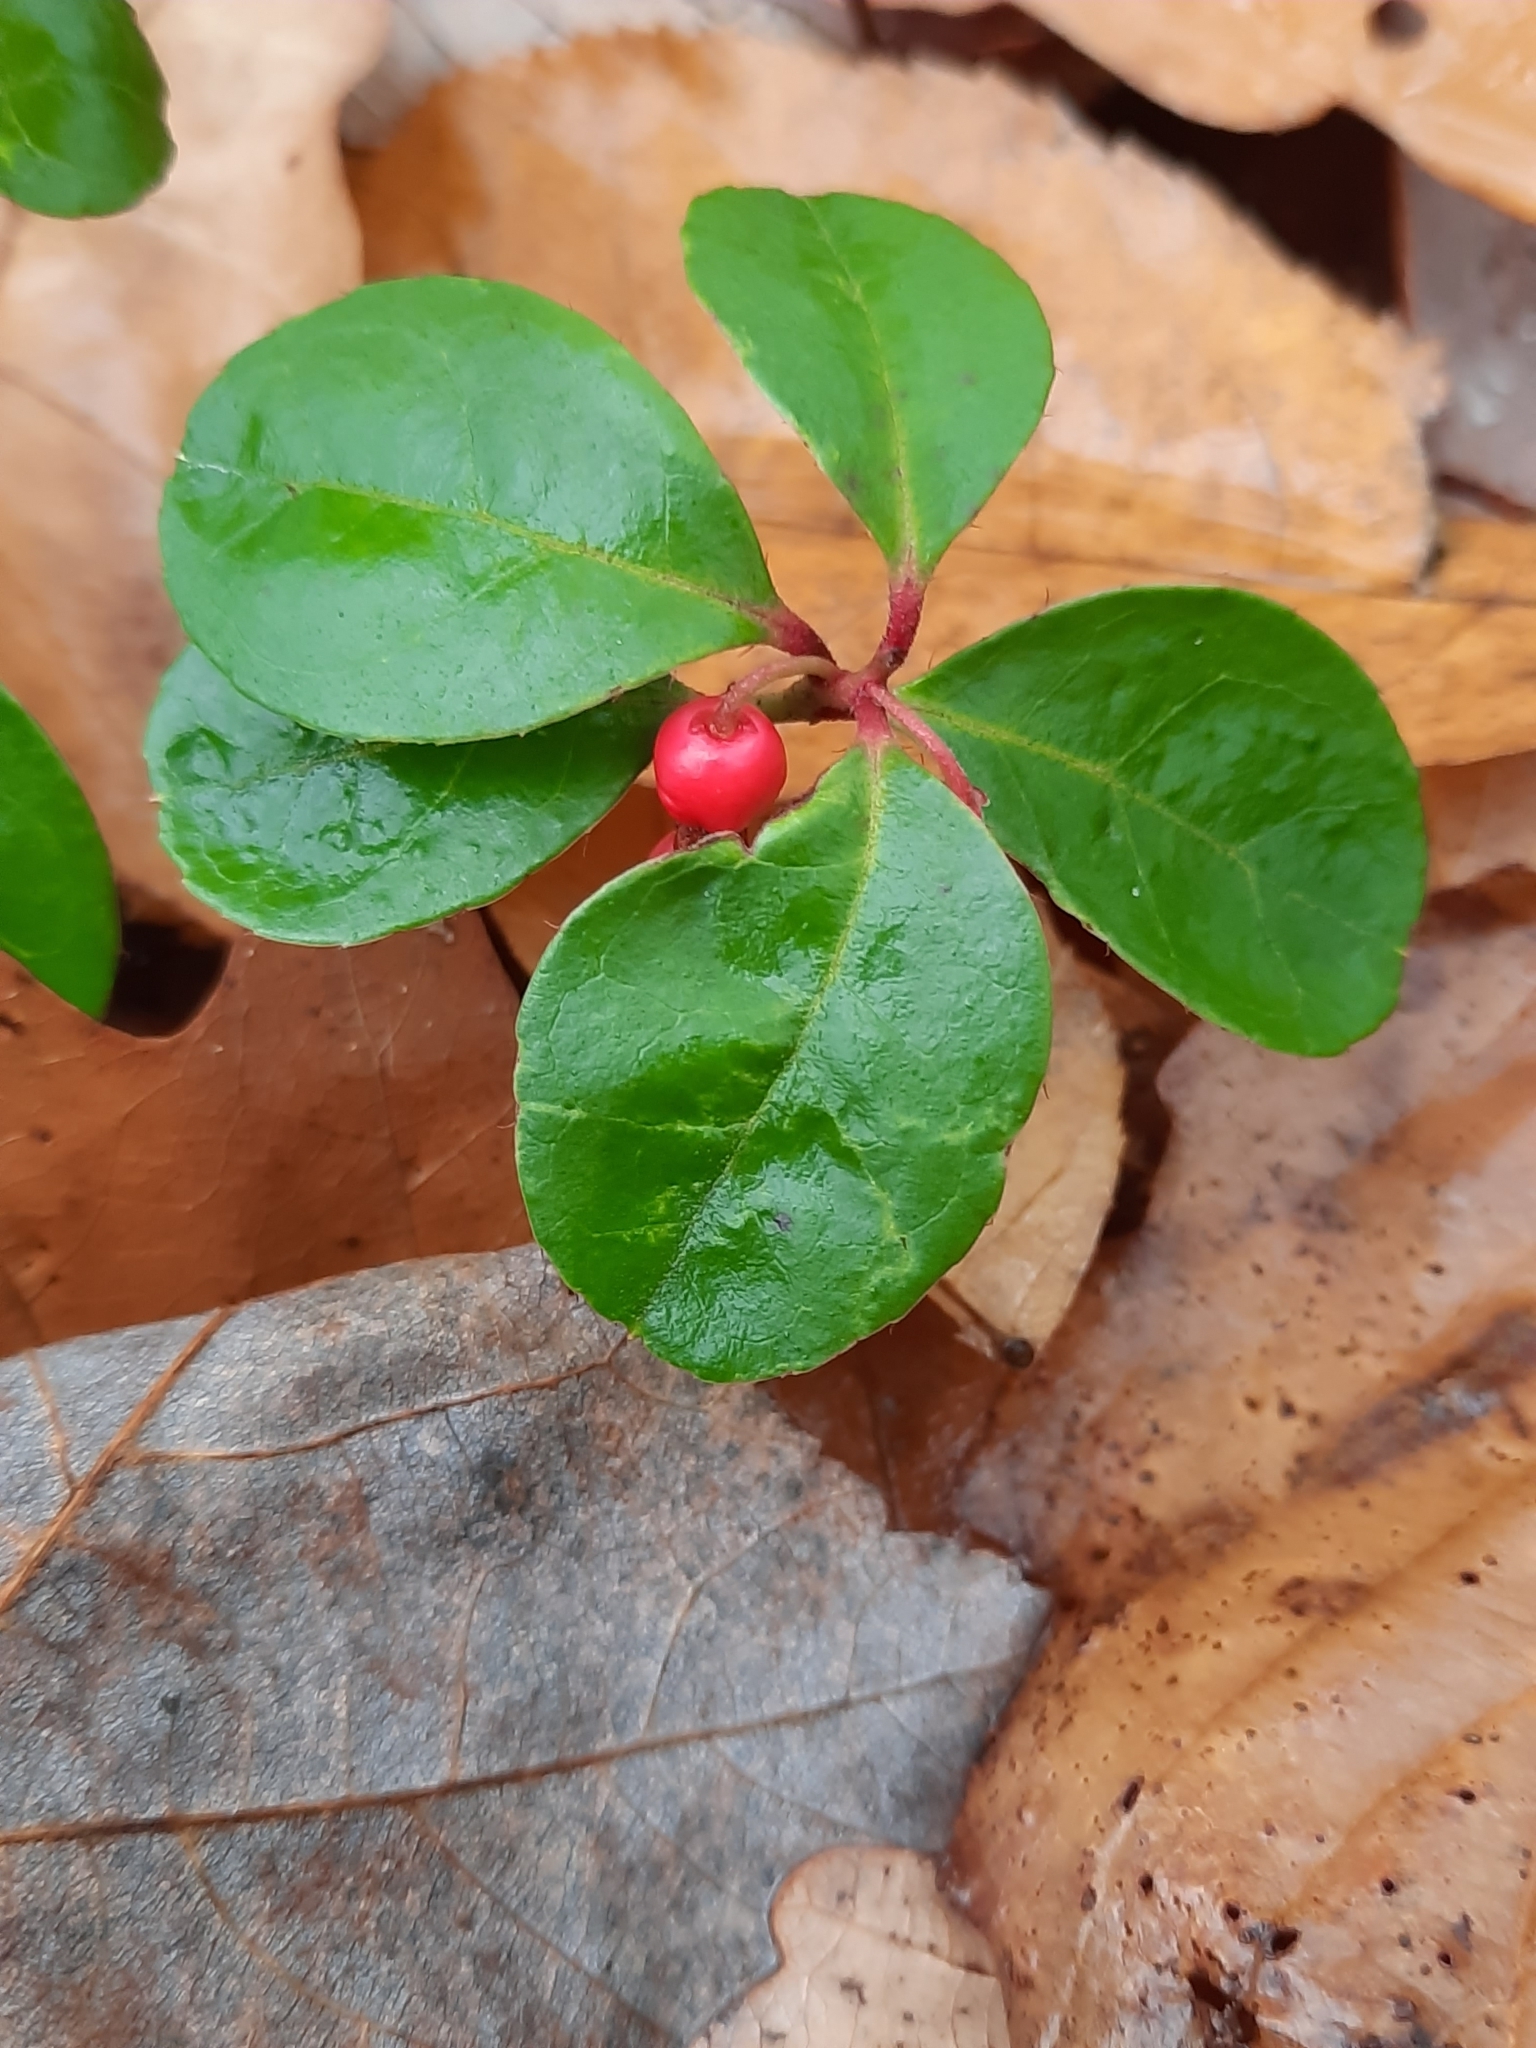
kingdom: Plantae
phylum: Tracheophyta
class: Magnoliopsida
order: Ericales
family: Ericaceae
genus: Gaultheria
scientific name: Gaultheria procumbens
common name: Checkerberry
